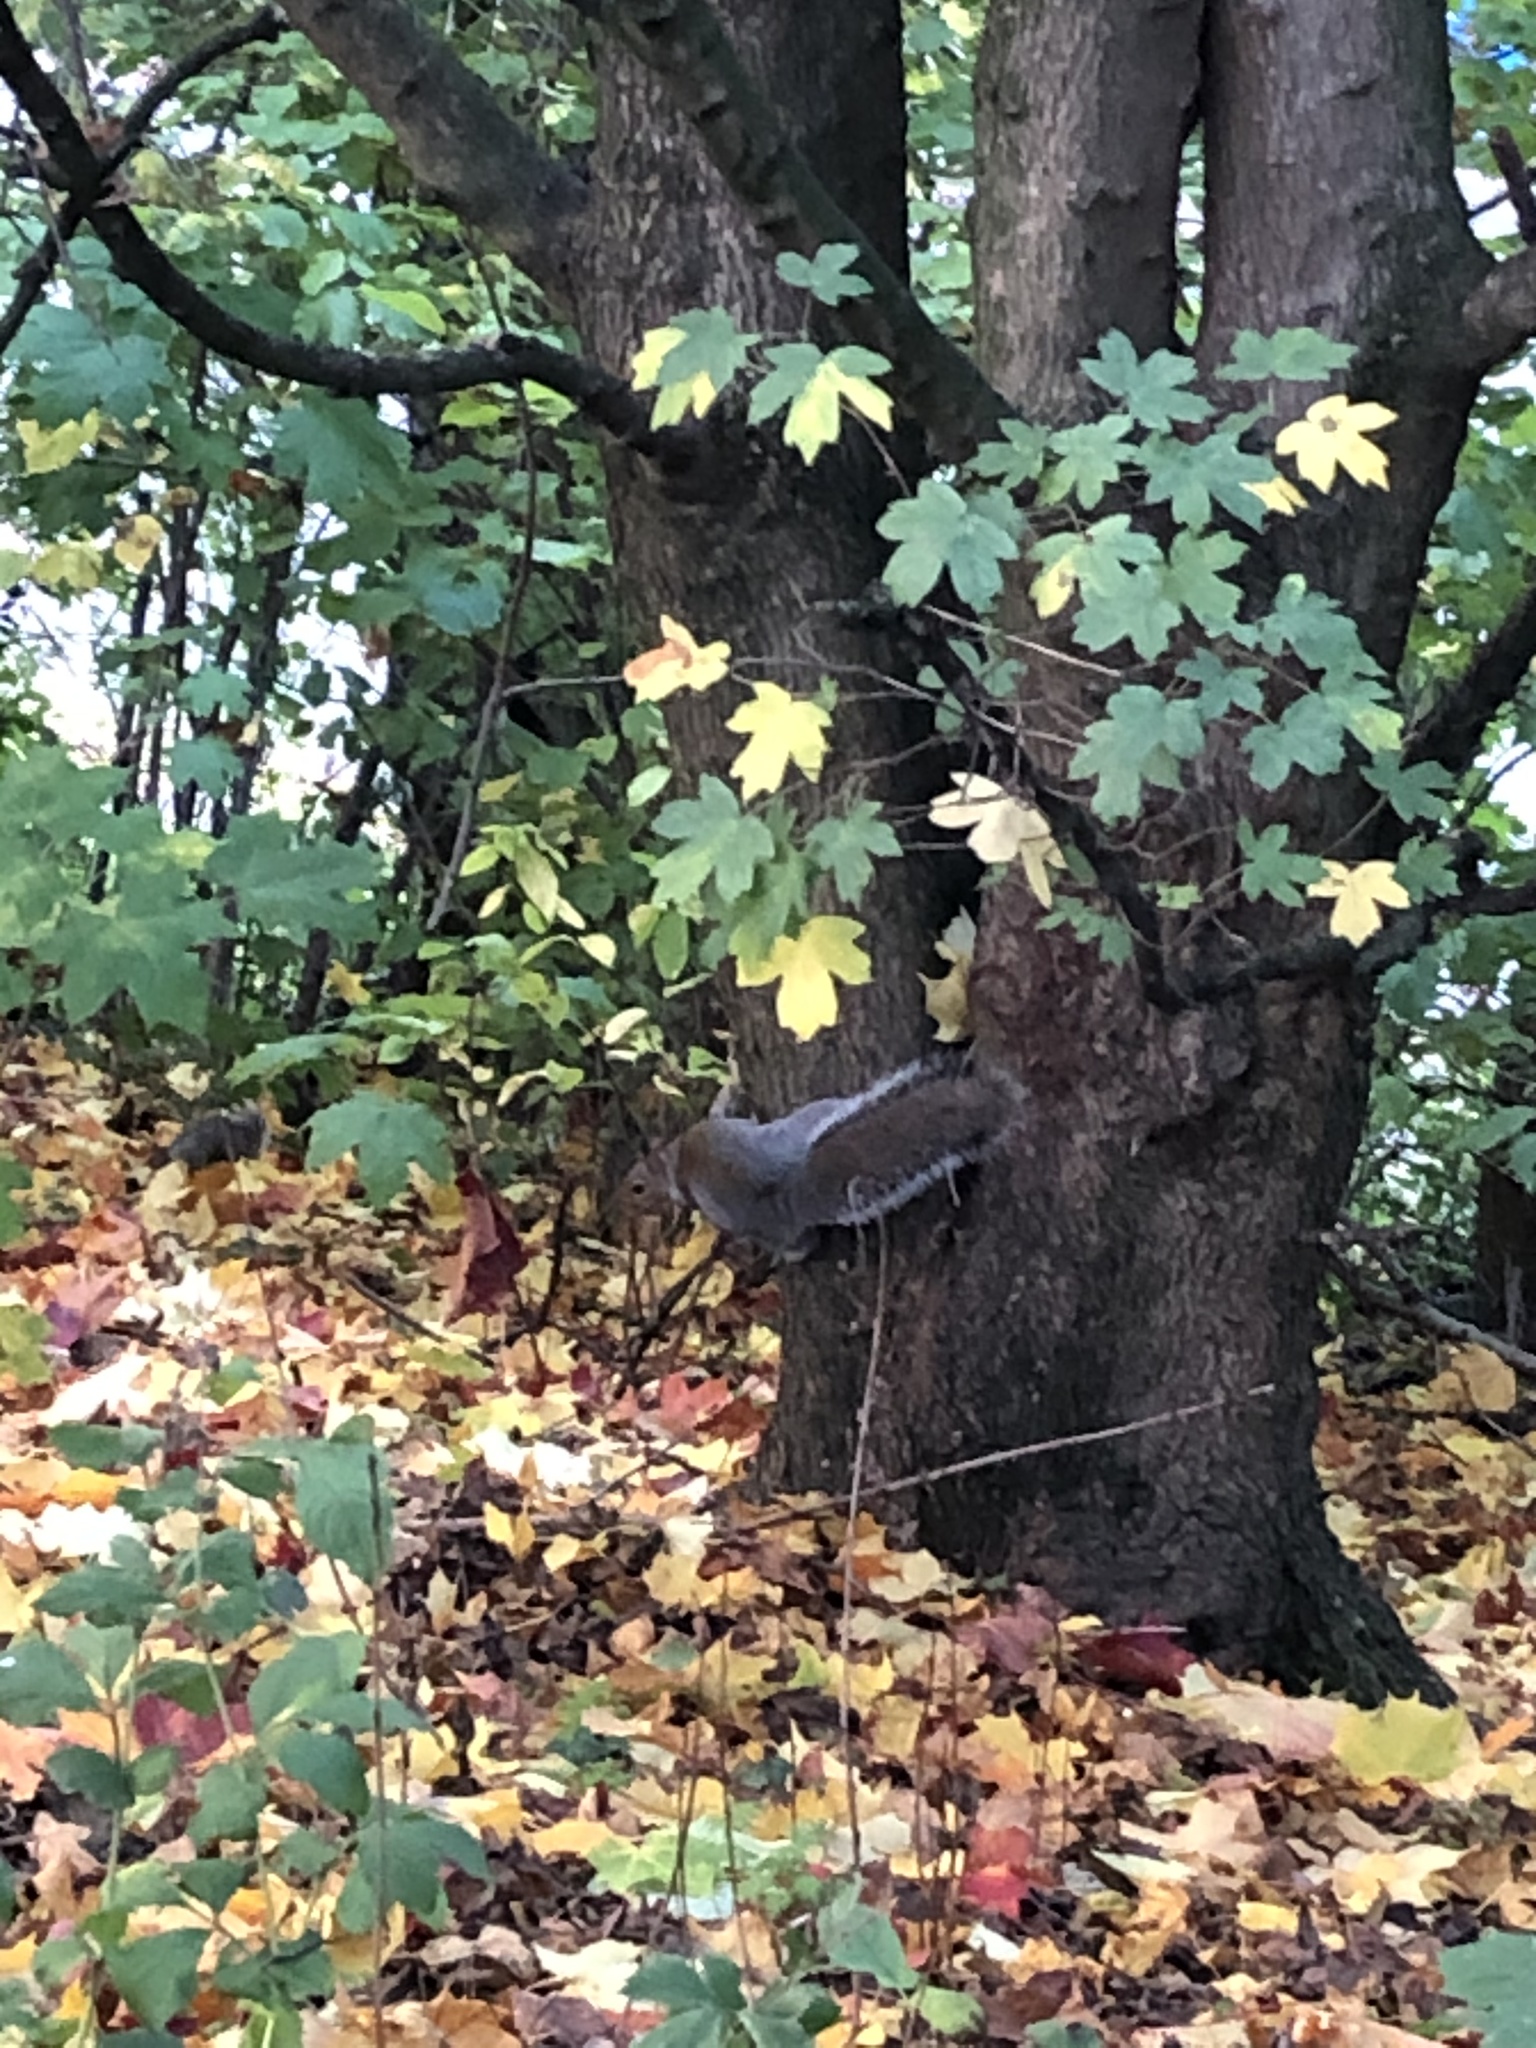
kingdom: Animalia
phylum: Chordata
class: Mammalia
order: Rodentia
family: Sciuridae
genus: Sciurus
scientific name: Sciurus carolinensis
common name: Eastern gray squirrel
